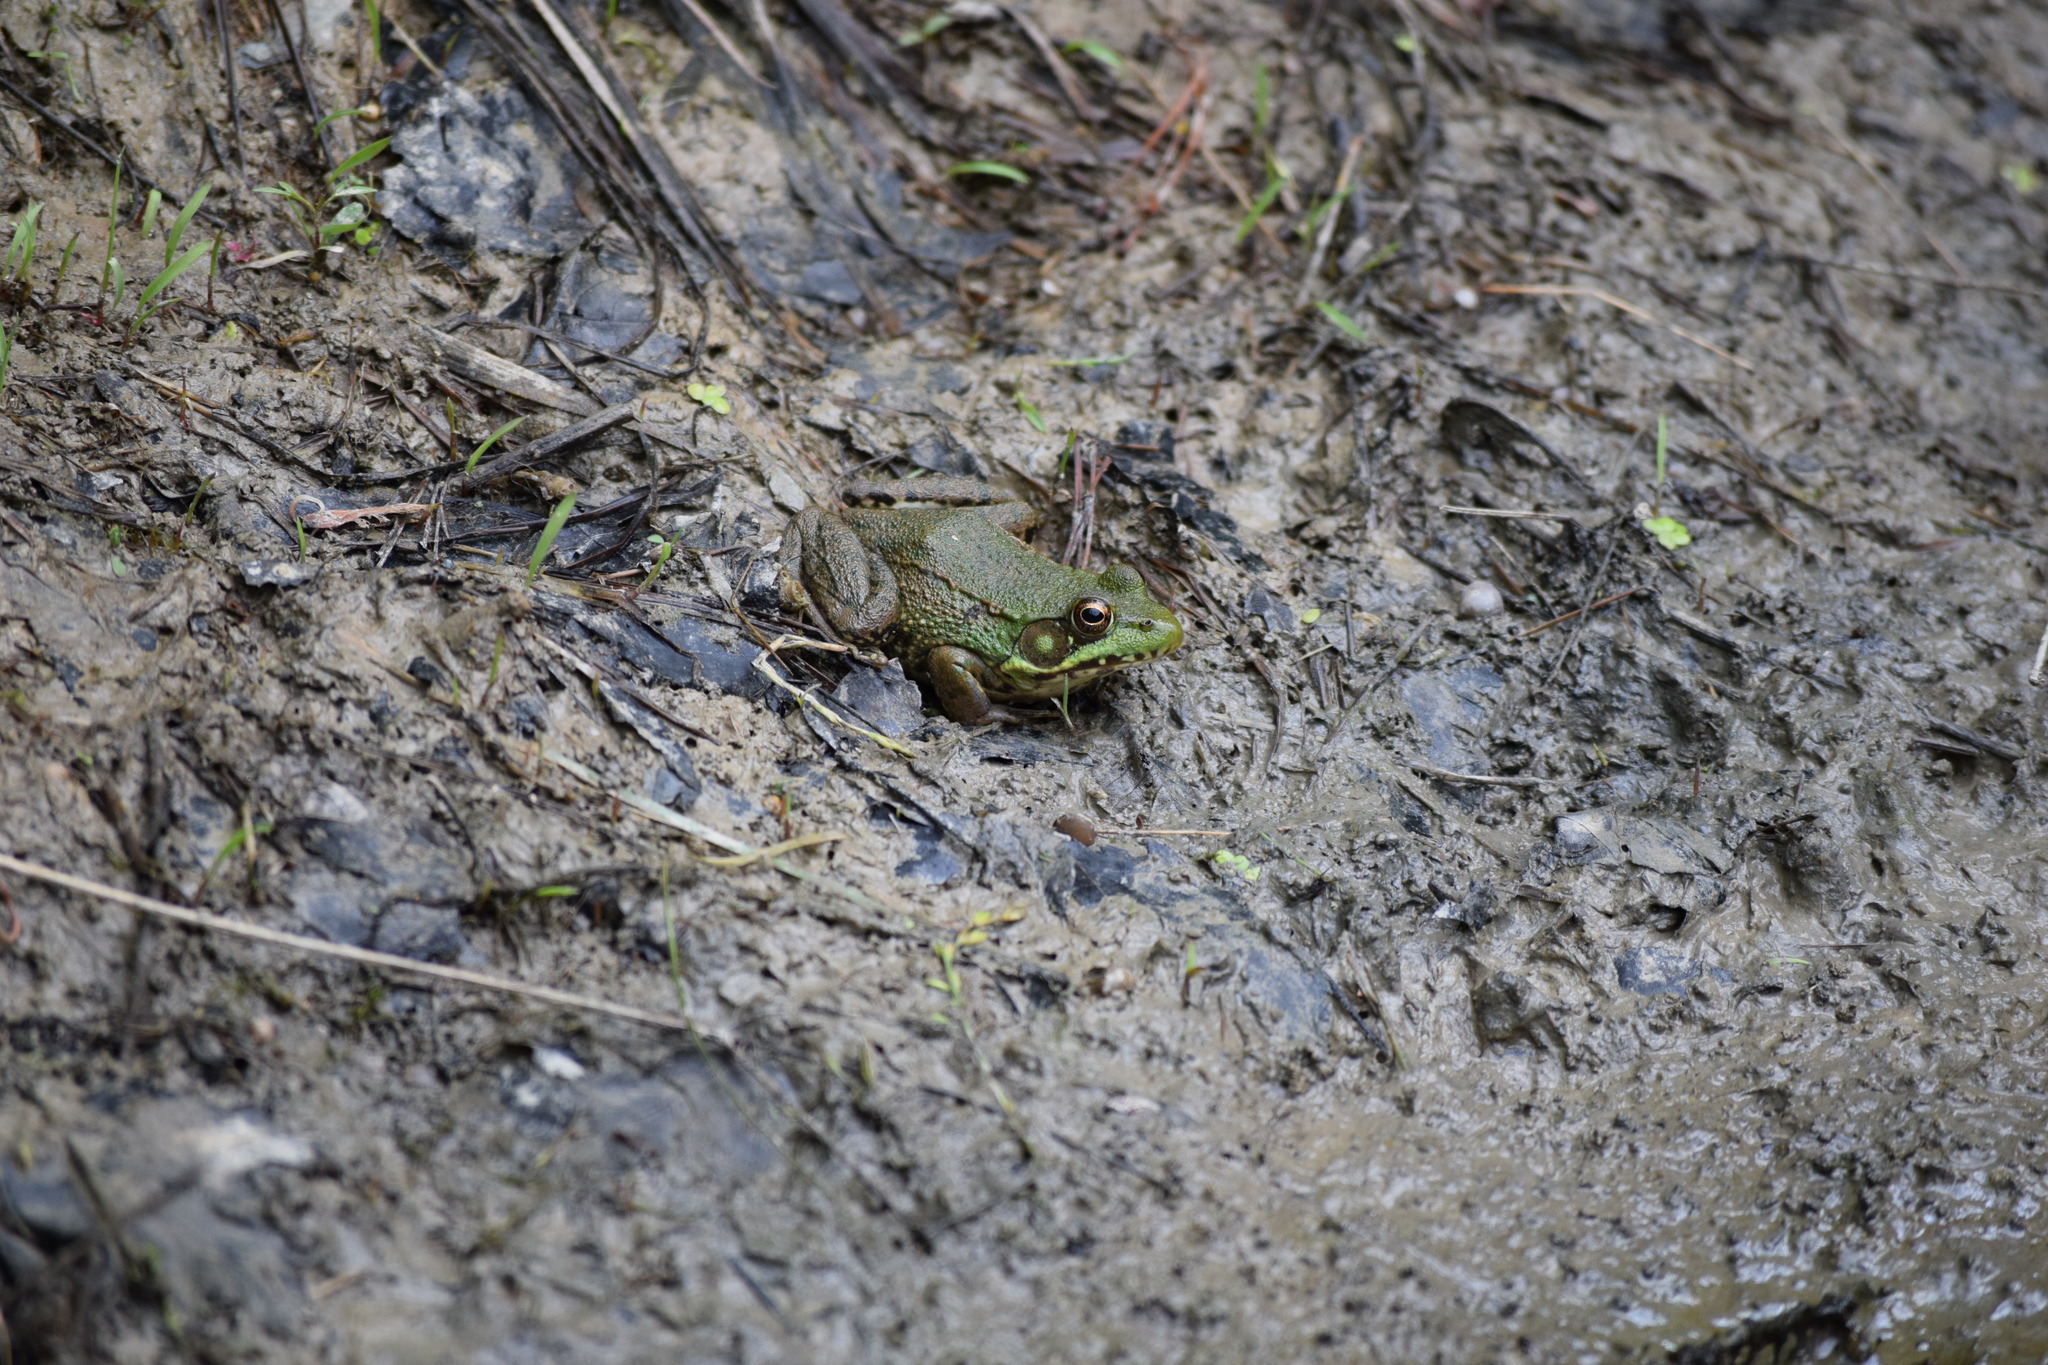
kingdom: Animalia
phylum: Chordata
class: Amphibia
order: Anura
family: Ranidae
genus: Lithobates
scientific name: Lithobates clamitans
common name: Green frog
